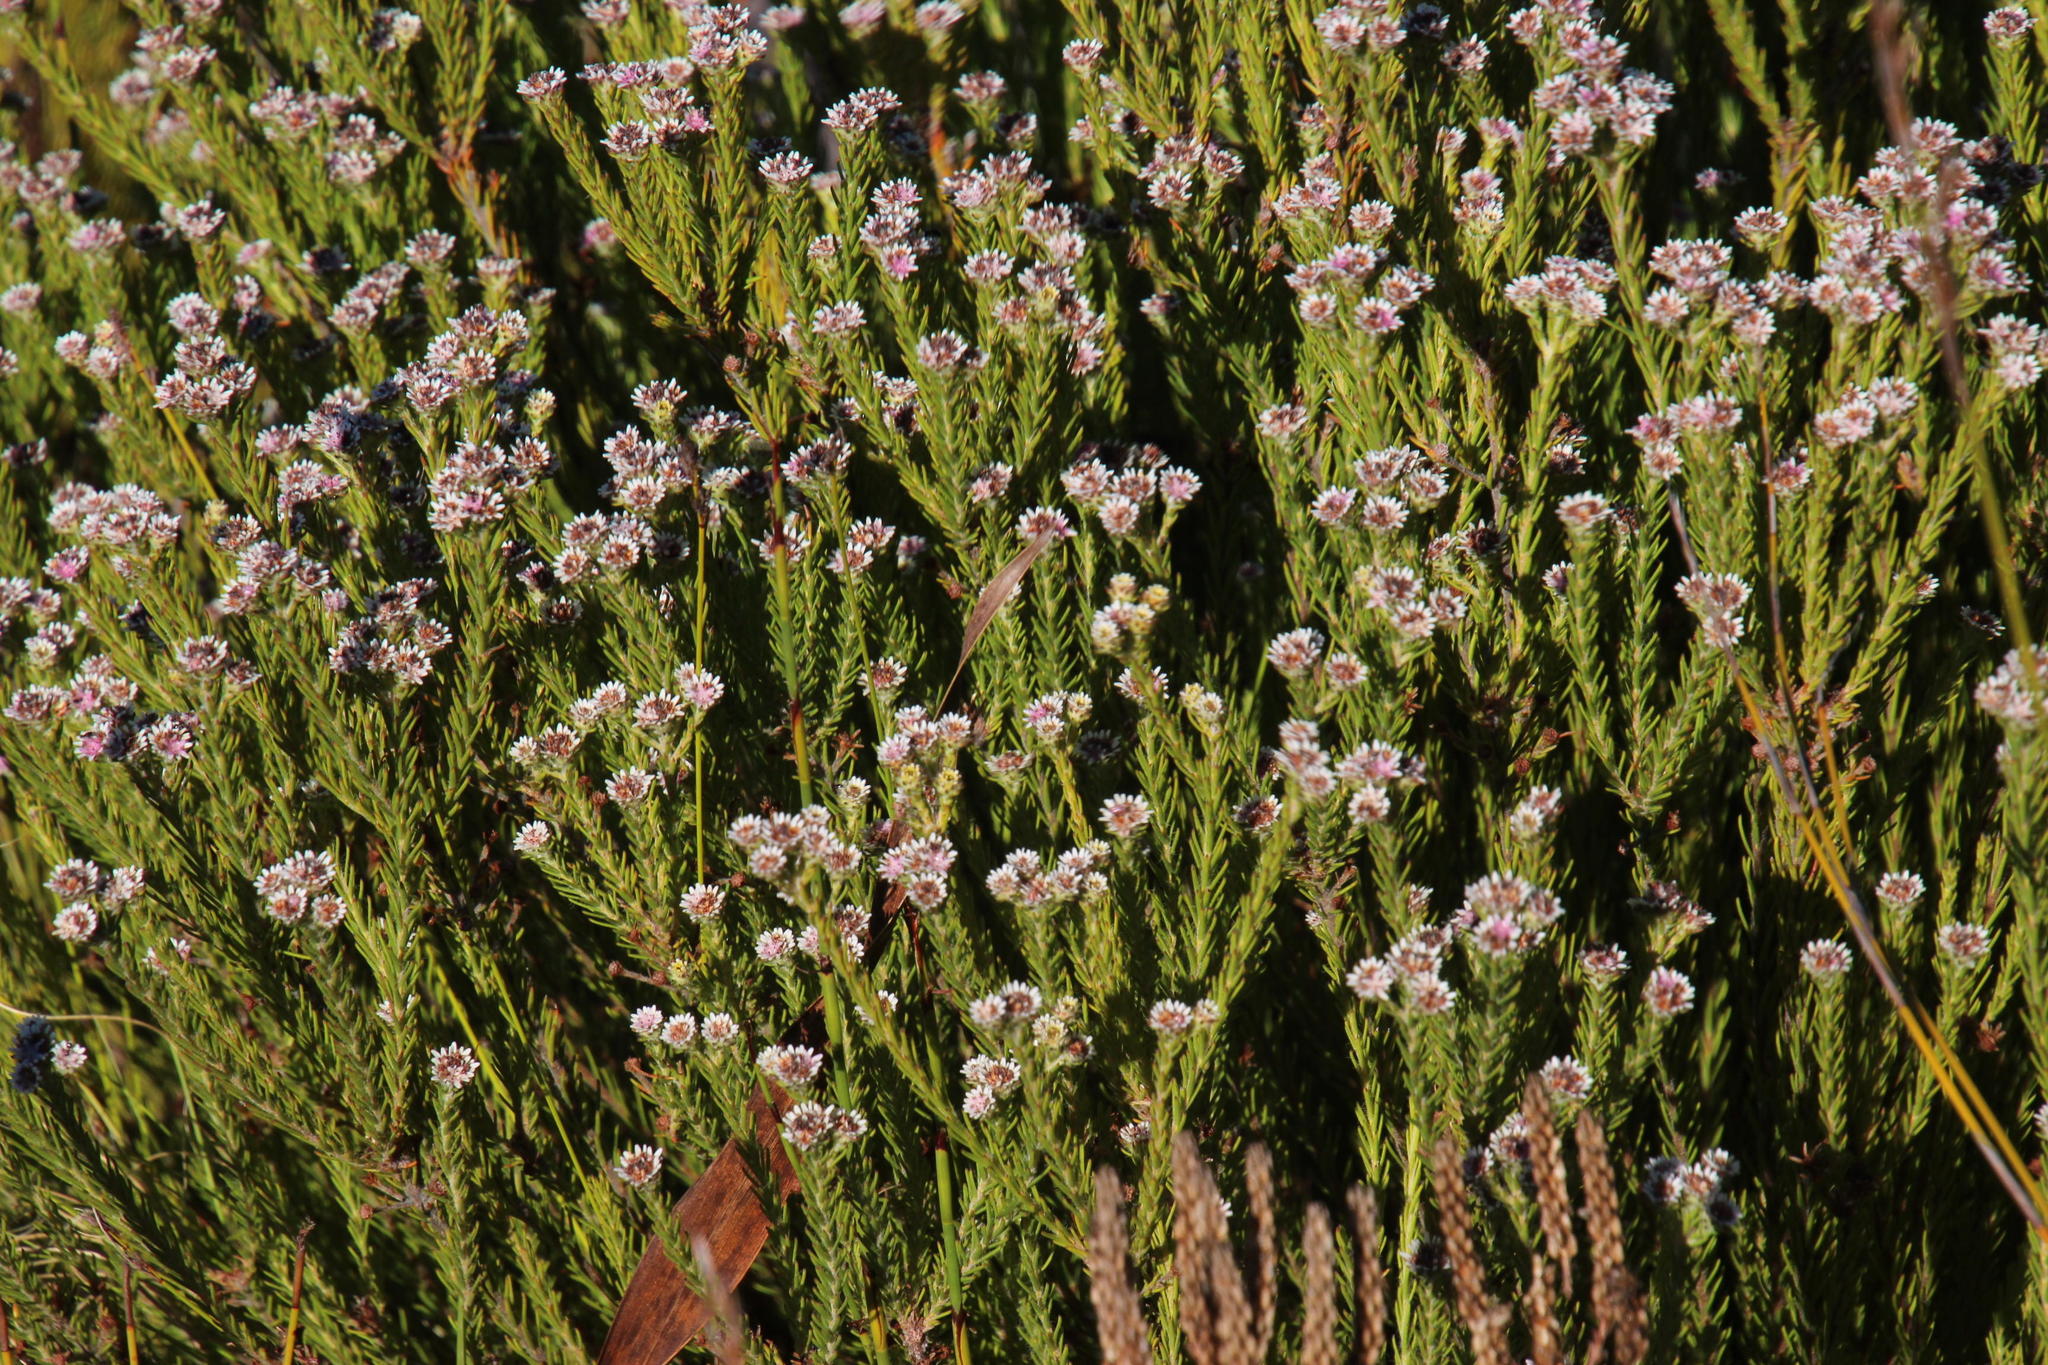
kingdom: Plantae
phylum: Tracheophyta
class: Magnoliopsida
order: Bruniales
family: Bruniaceae
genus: Staavia
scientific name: Staavia radiata
